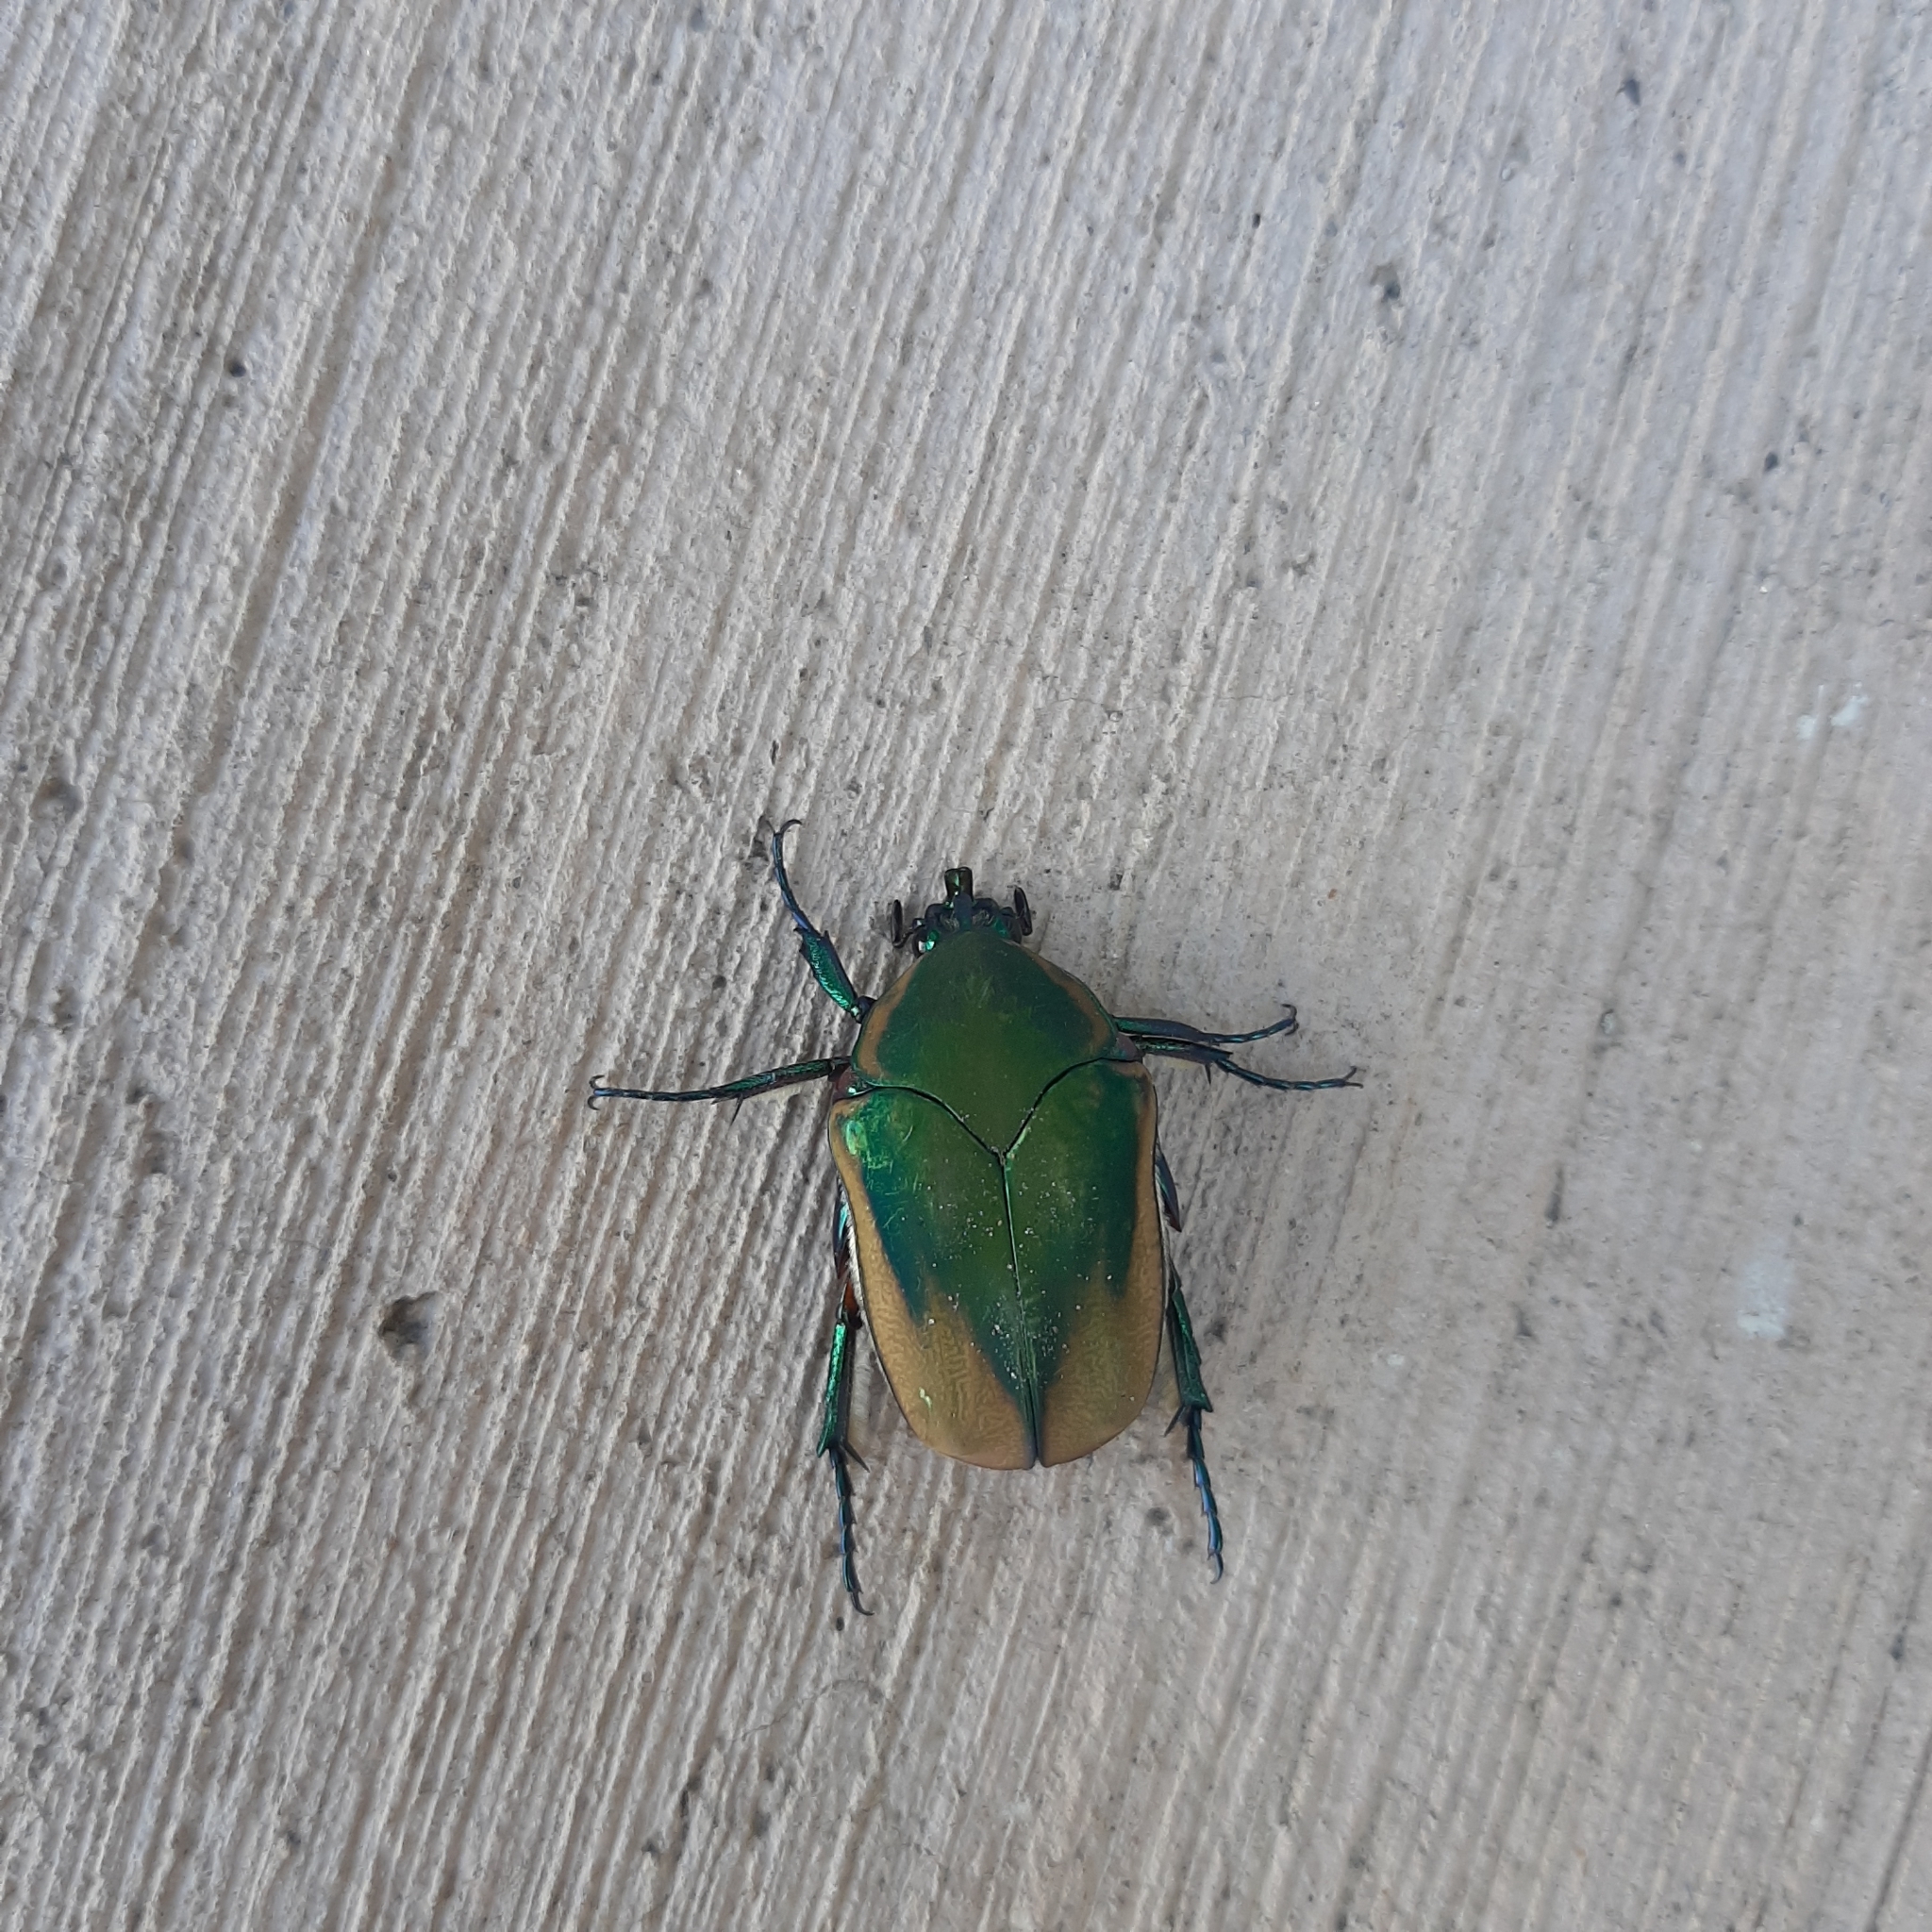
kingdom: Animalia
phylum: Arthropoda
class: Insecta
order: Coleoptera
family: Scarabaeidae
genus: Cotinis
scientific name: Cotinis mutabilis
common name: Figeater beetle
